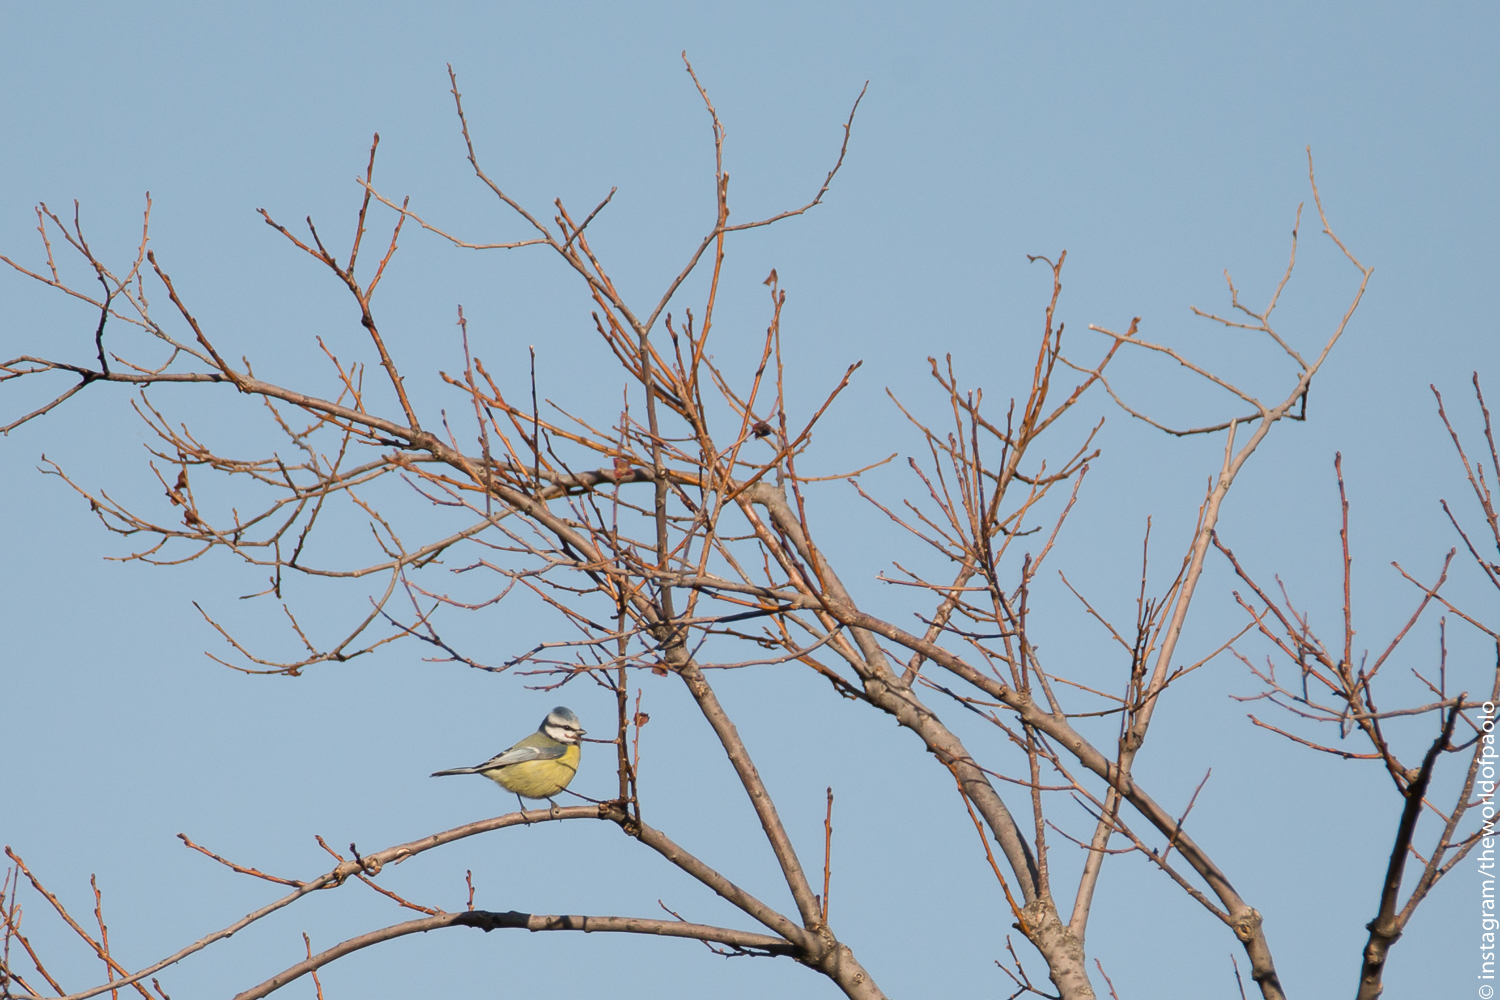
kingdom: Animalia
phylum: Chordata
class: Aves
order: Passeriformes
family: Paridae
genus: Cyanistes
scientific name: Cyanistes caeruleus
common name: Eurasian blue tit
